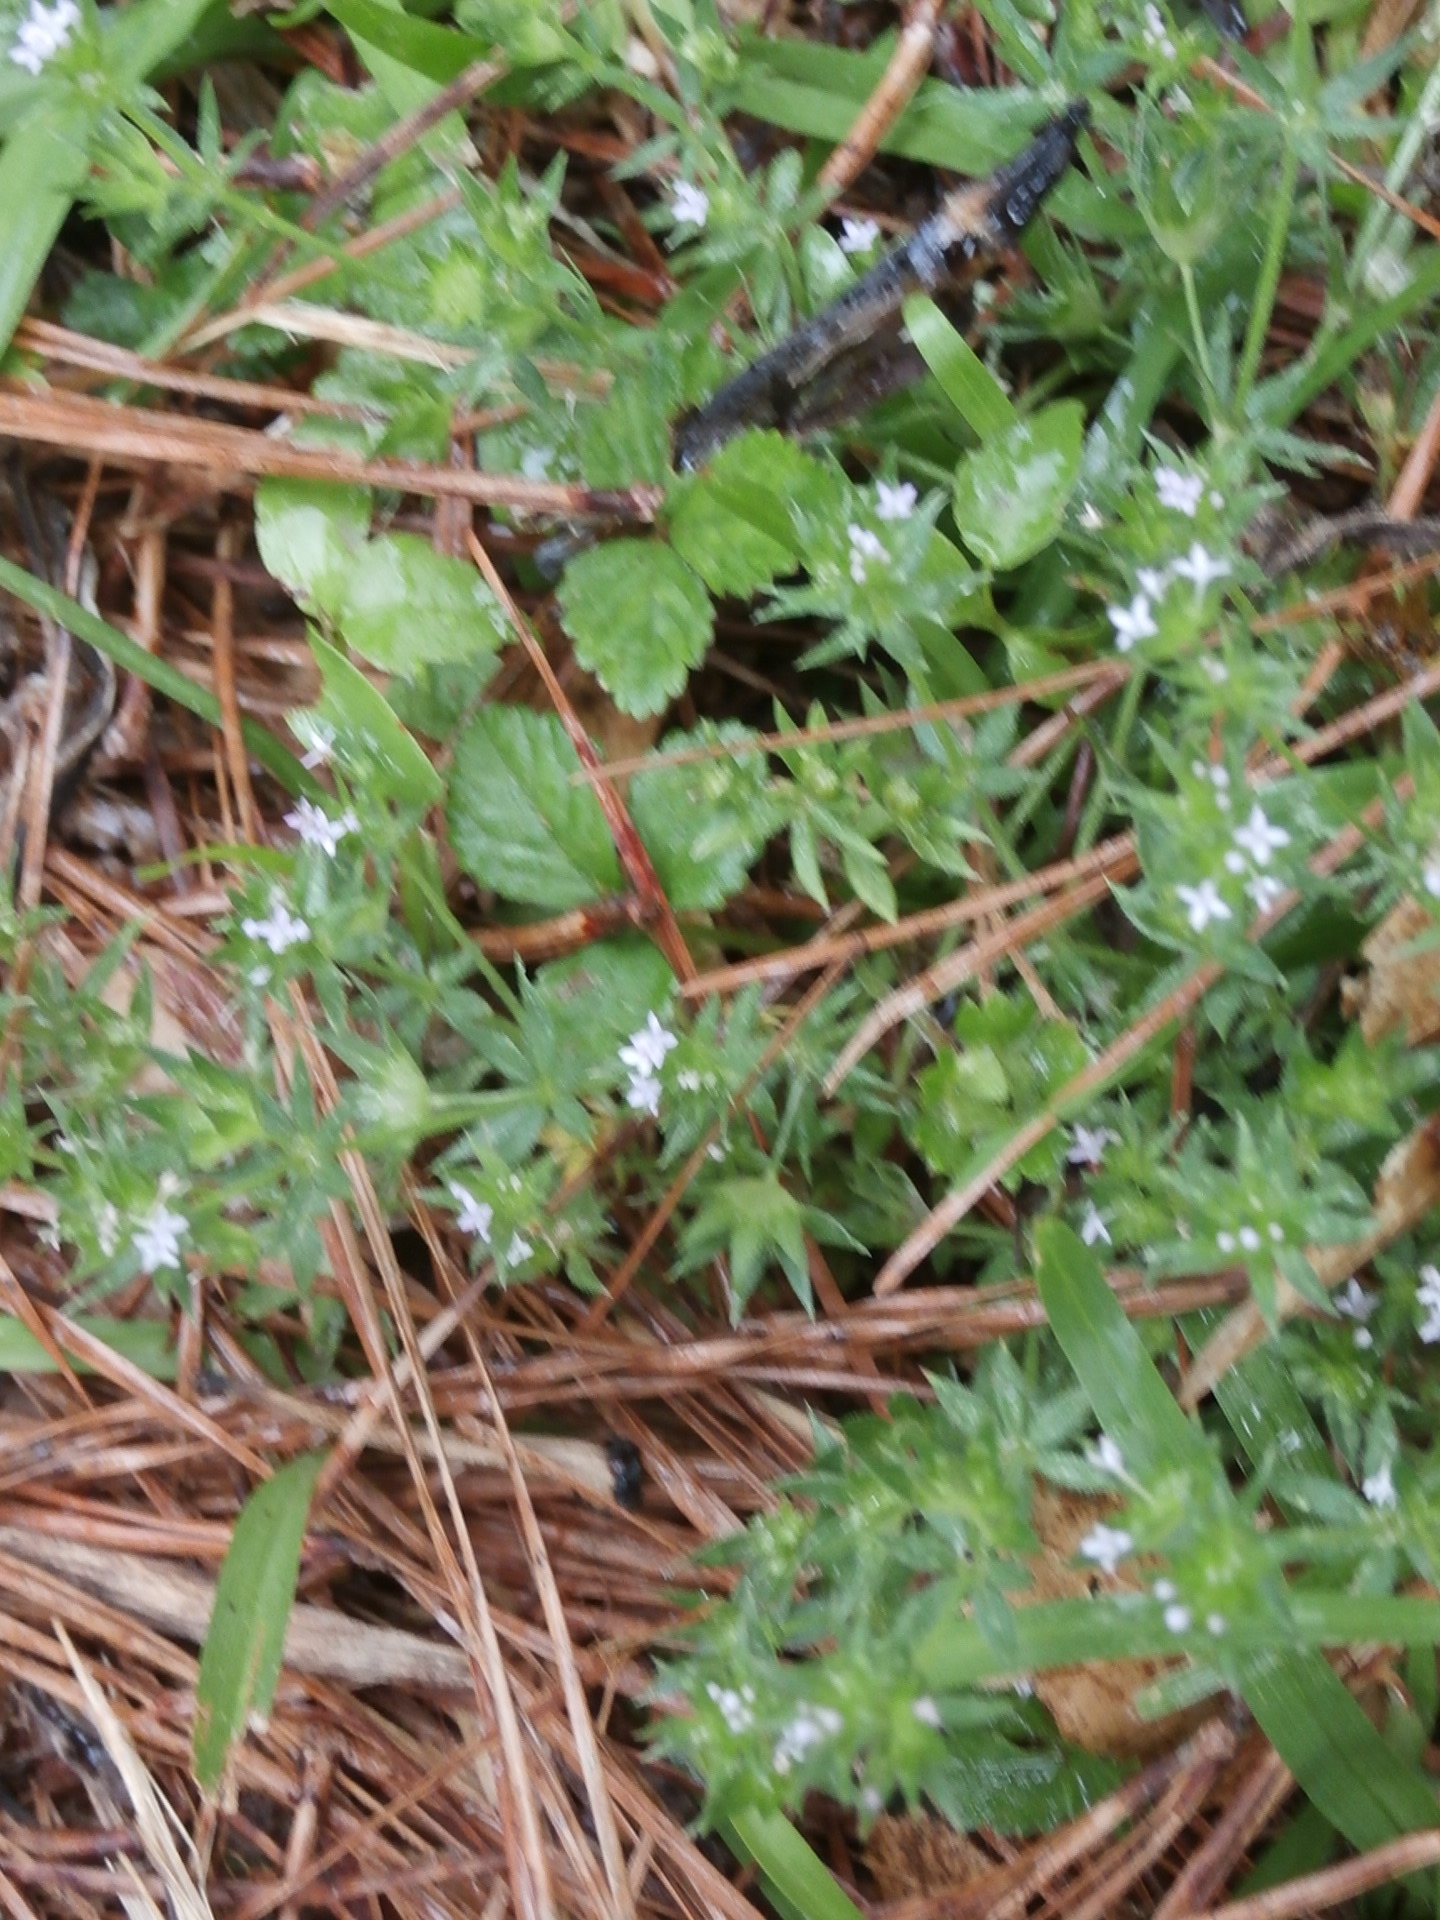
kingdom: Plantae
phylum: Tracheophyta
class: Magnoliopsida
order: Gentianales
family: Rubiaceae
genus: Sherardia
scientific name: Sherardia arvensis
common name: Field madder
